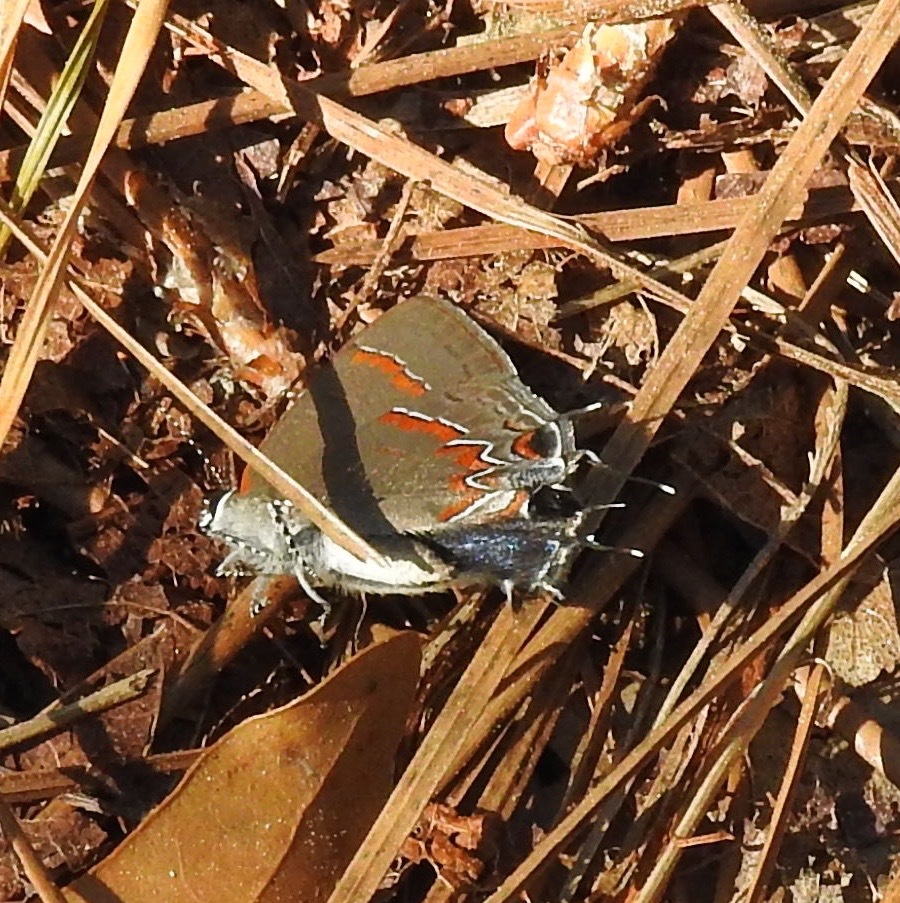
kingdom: Animalia
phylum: Arthropoda
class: Insecta
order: Lepidoptera
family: Lycaenidae
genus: Calycopis
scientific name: Calycopis cecrops
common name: Red-banded hairstreak
